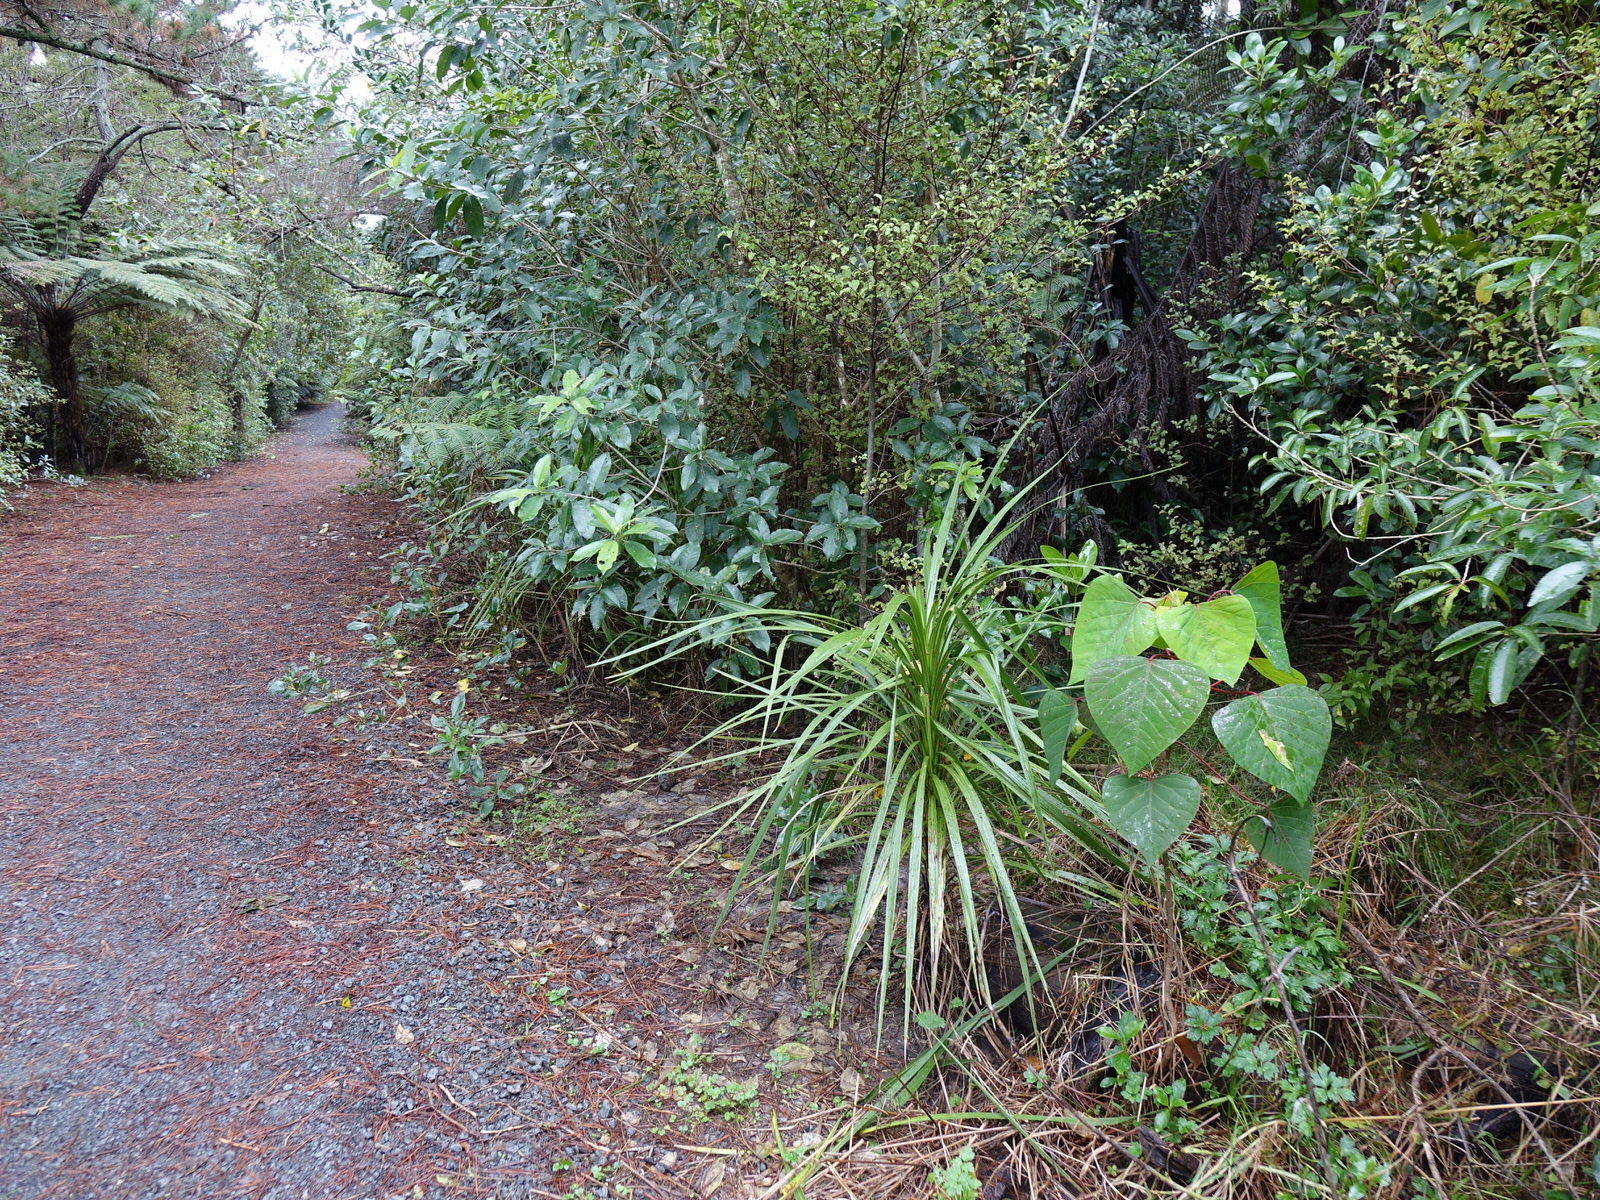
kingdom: Plantae
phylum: Tracheophyta
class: Magnoliopsida
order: Malpighiales
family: Euphorbiaceae
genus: Homalanthus
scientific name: Homalanthus populifolius
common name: Queensland poplar
